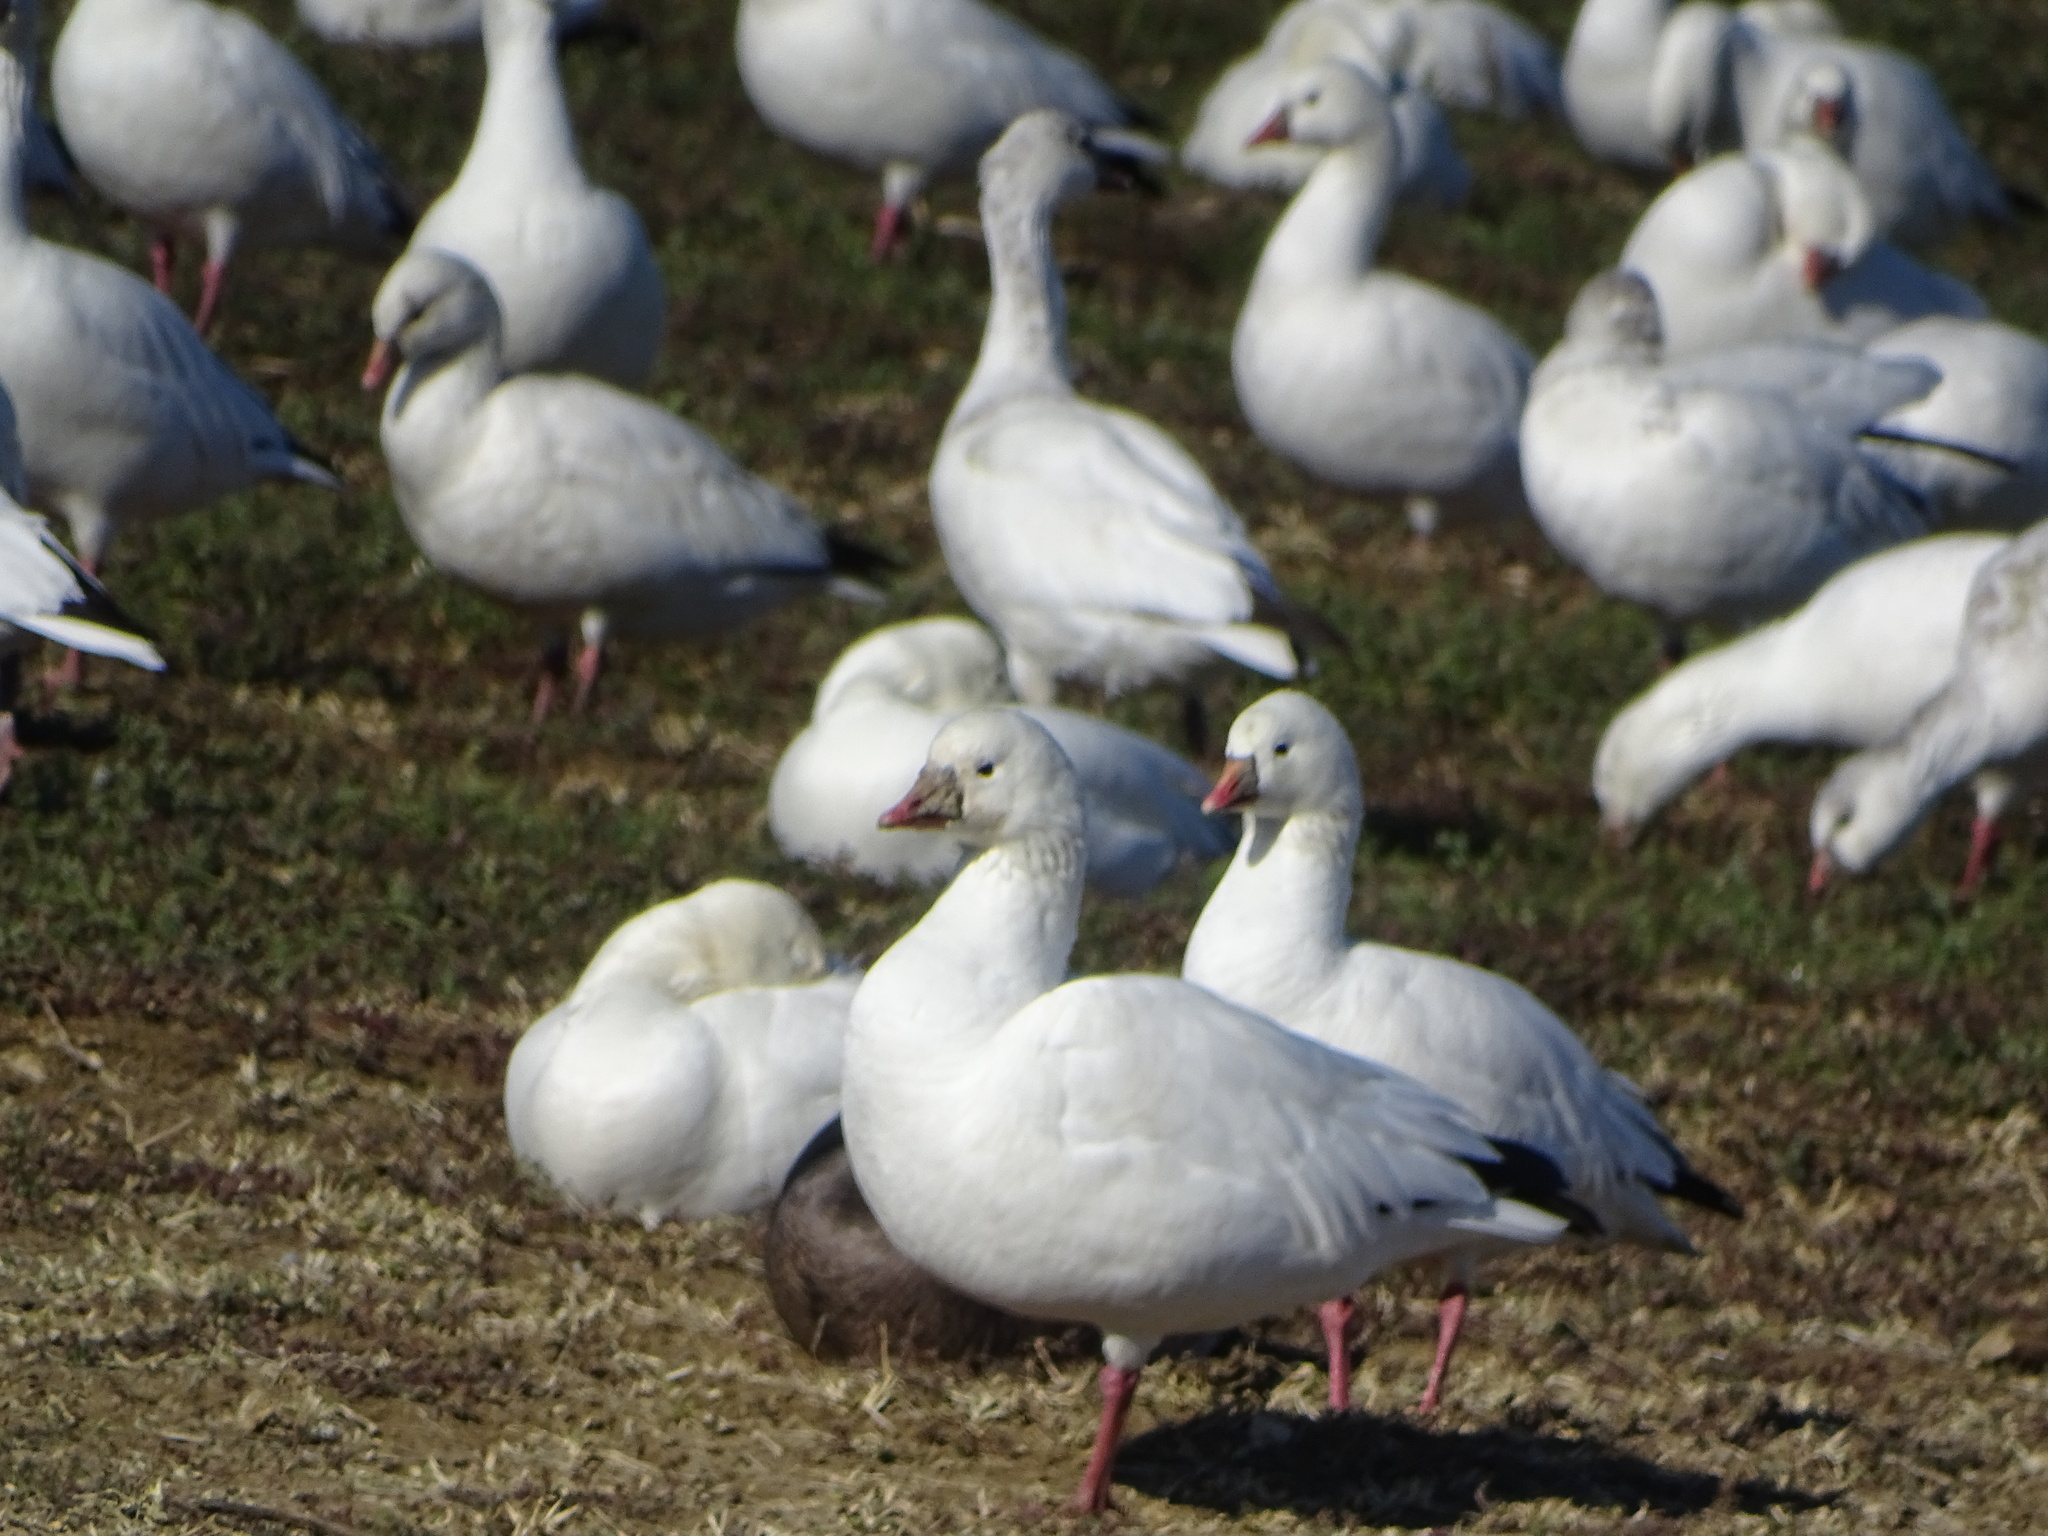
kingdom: Animalia
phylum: Chordata
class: Aves
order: Anseriformes
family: Anatidae
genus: Anser
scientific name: Anser rossii
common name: Ross's goose
